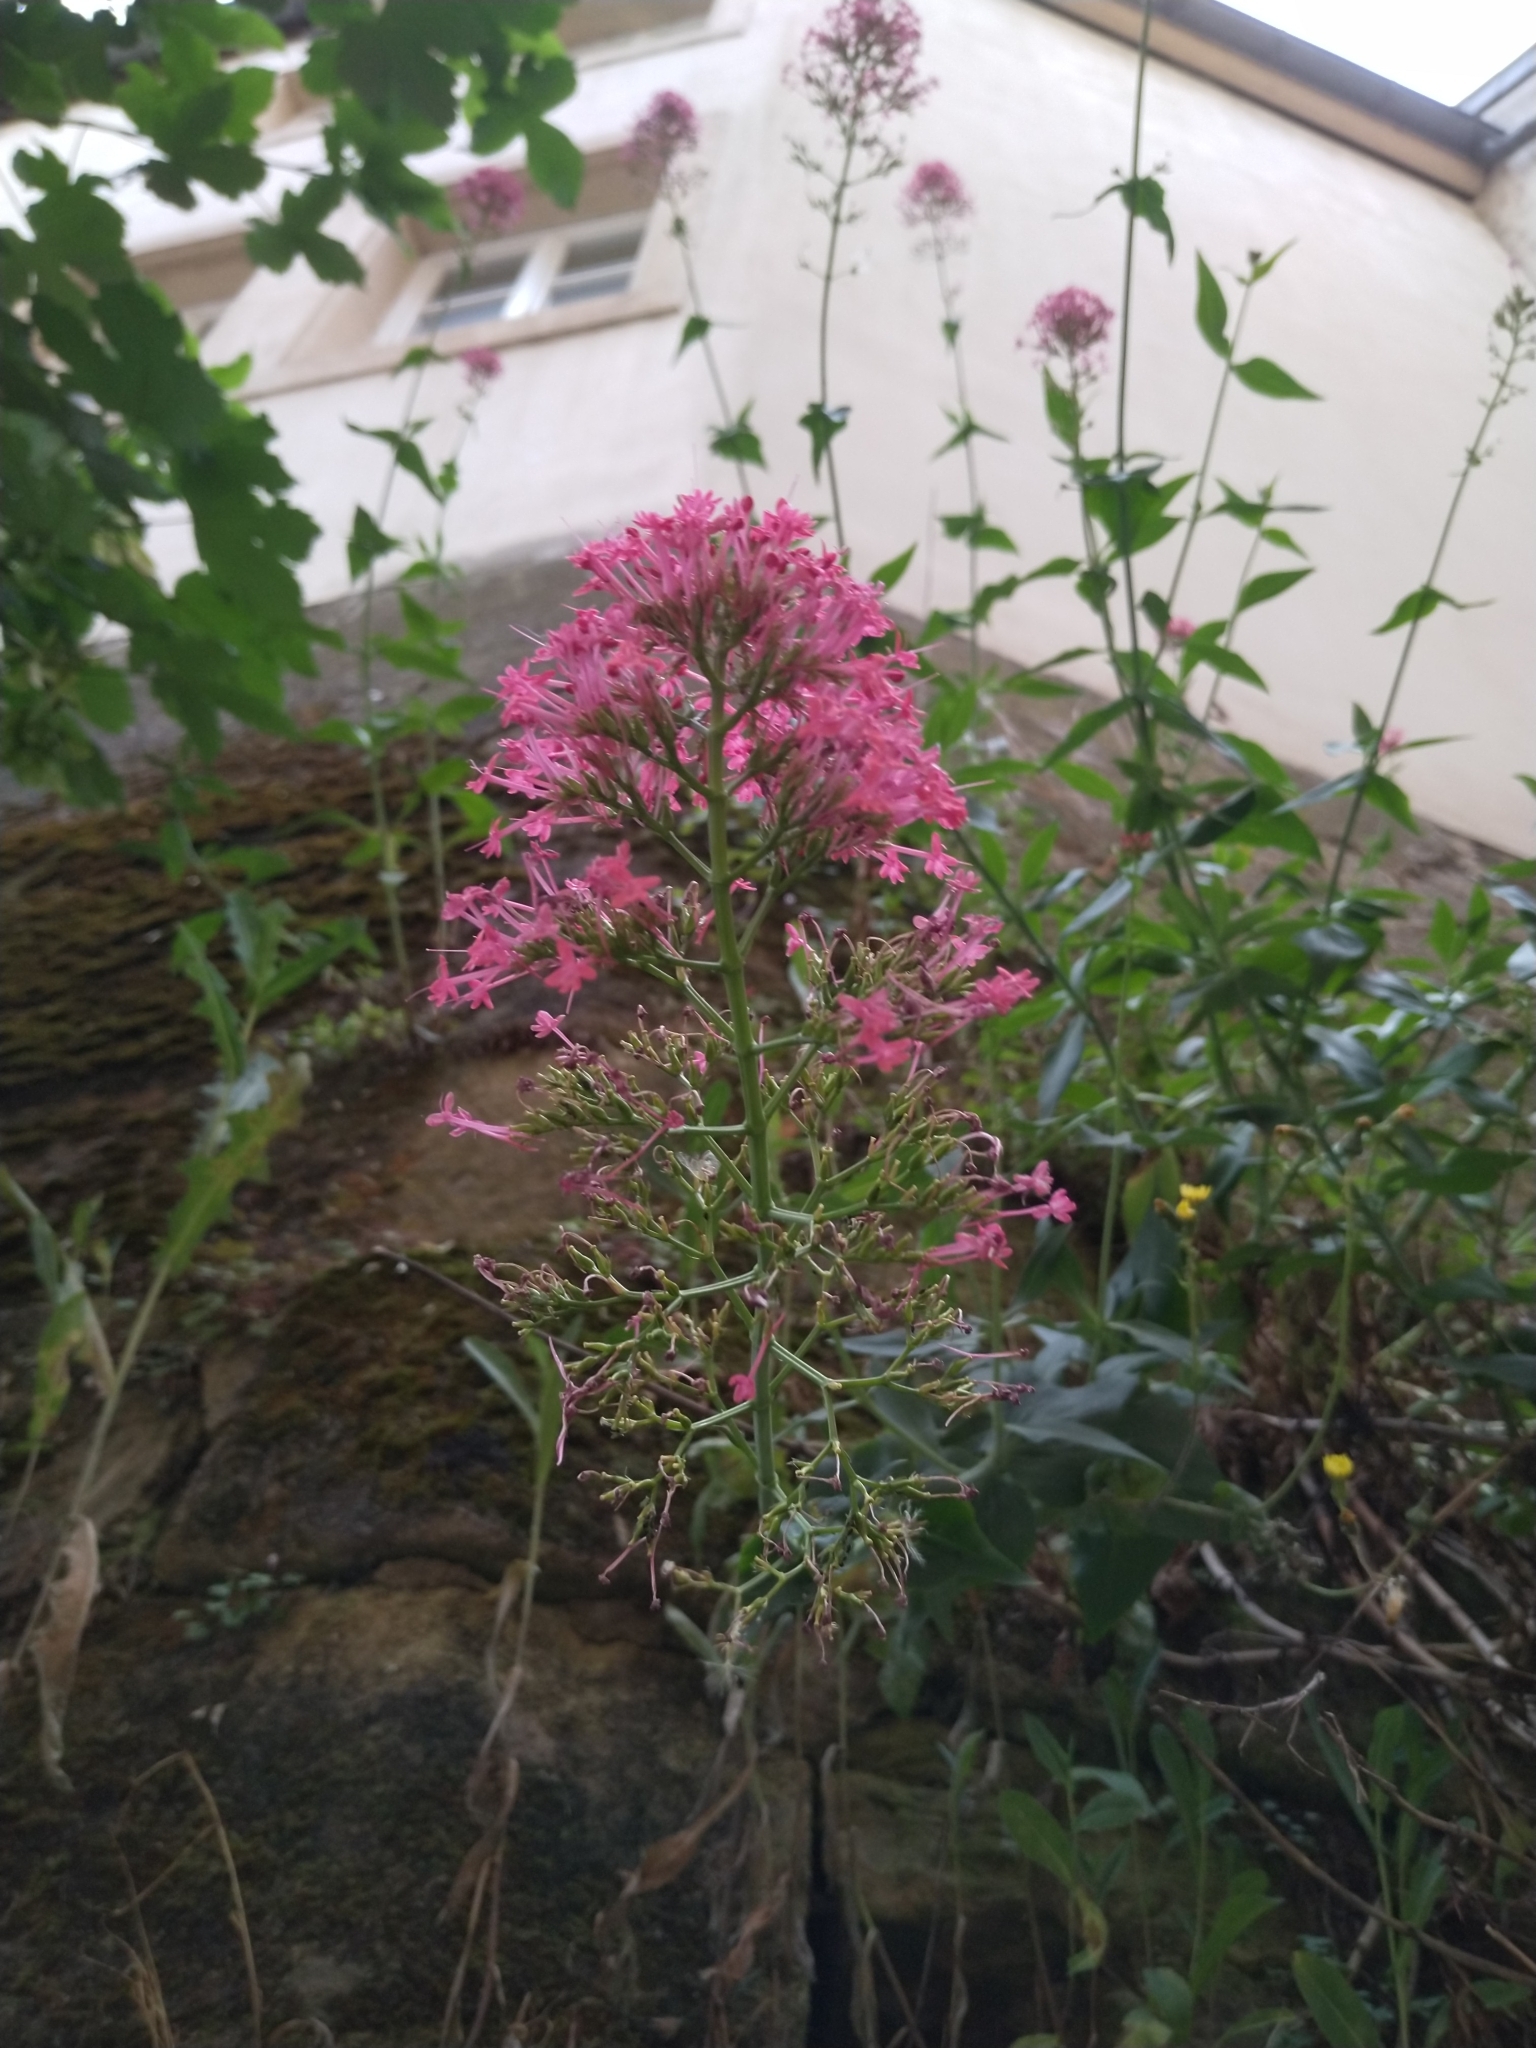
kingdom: Plantae
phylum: Tracheophyta
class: Magnoliopsida
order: Dipsacales
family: Caprifoliaceae
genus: Centranthus
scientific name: Centranthus ruber
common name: Red valerian
